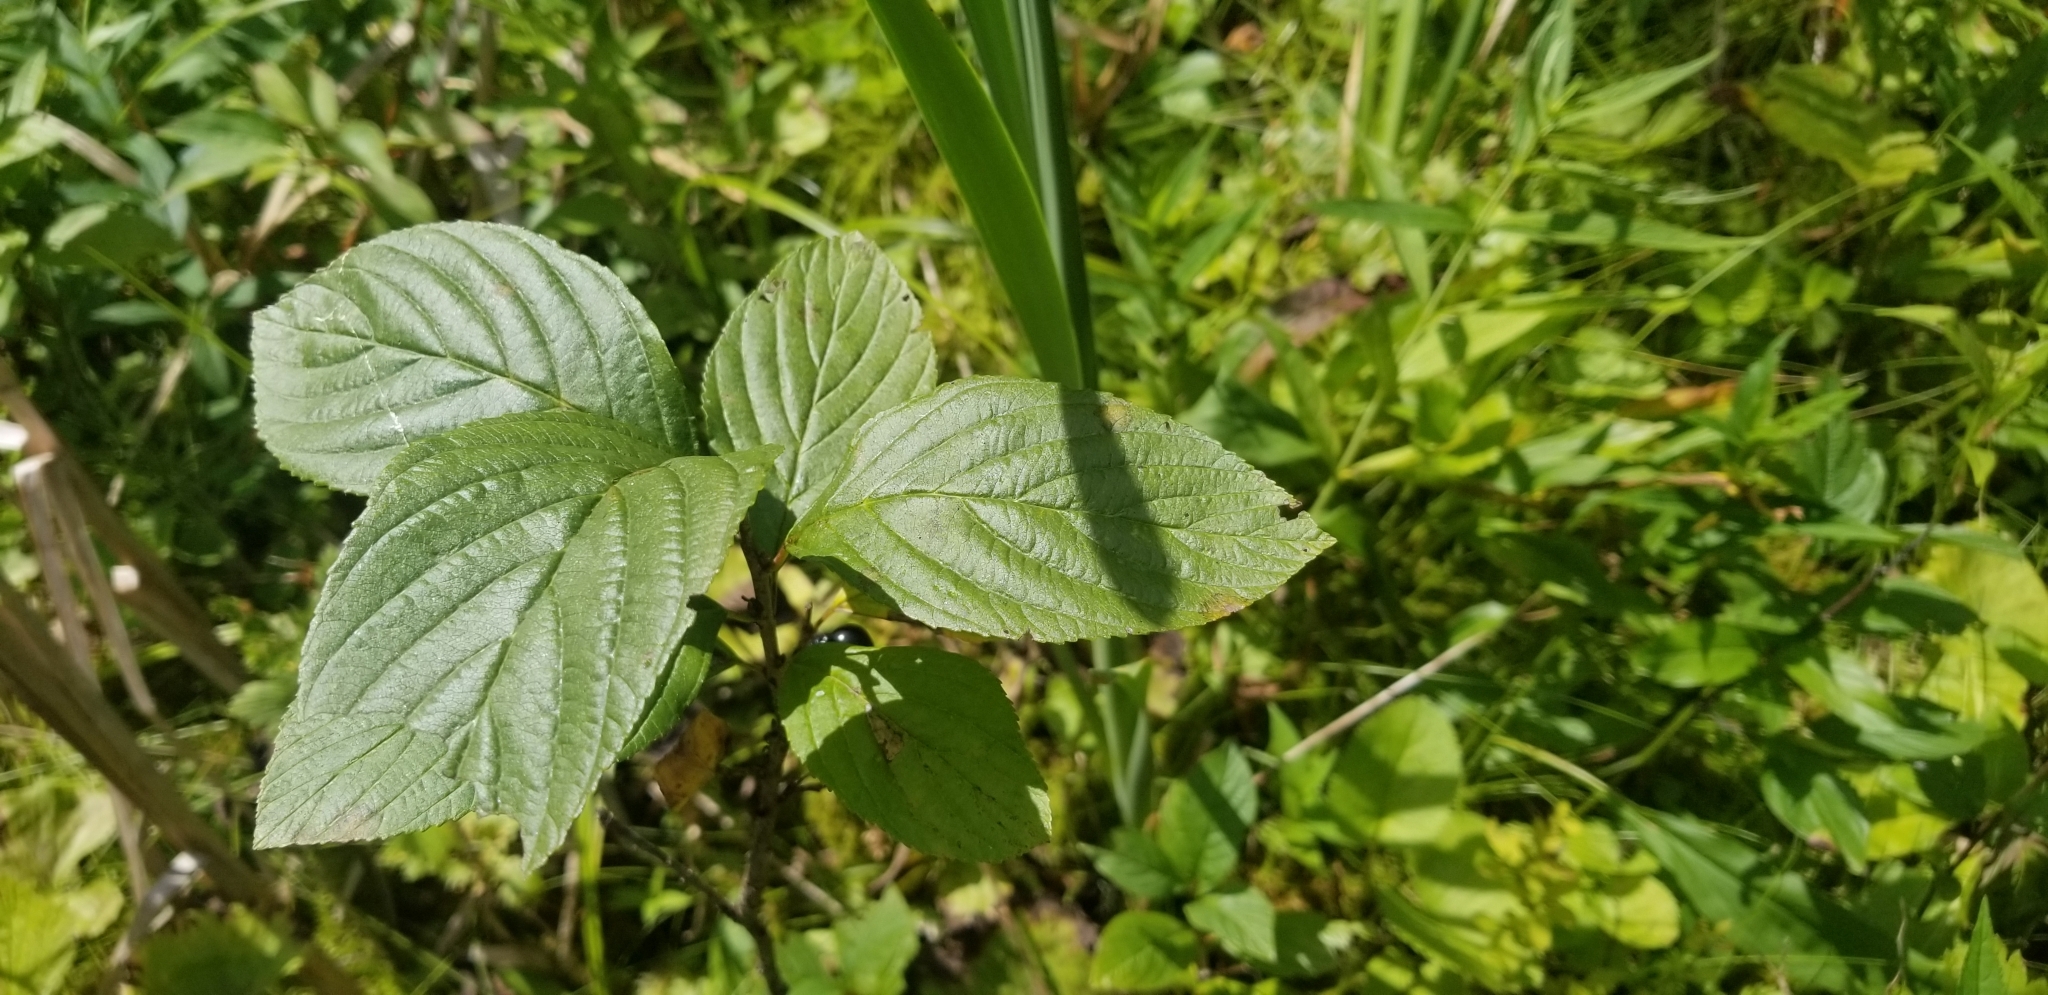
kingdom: Plantae
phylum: Tracheophyta
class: Magnoliopsida
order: Rosales
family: Rhamnaceae
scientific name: Rhamnaceae
